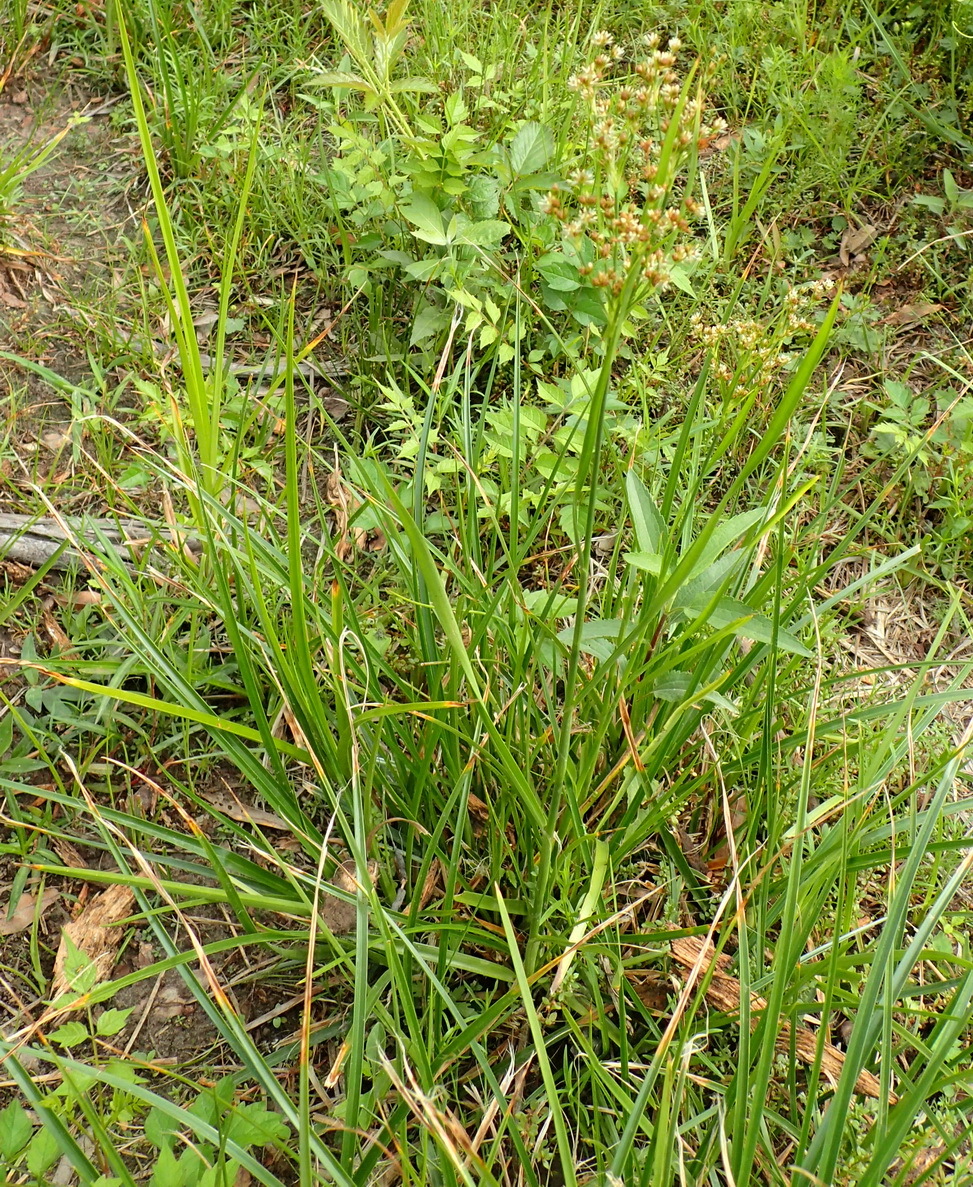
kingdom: Plantae
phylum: Tracheophyta
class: Liliopsida
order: Poales
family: Juncaceae
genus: Juncus
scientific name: Juncus biflorus
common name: Two-flowered rush
